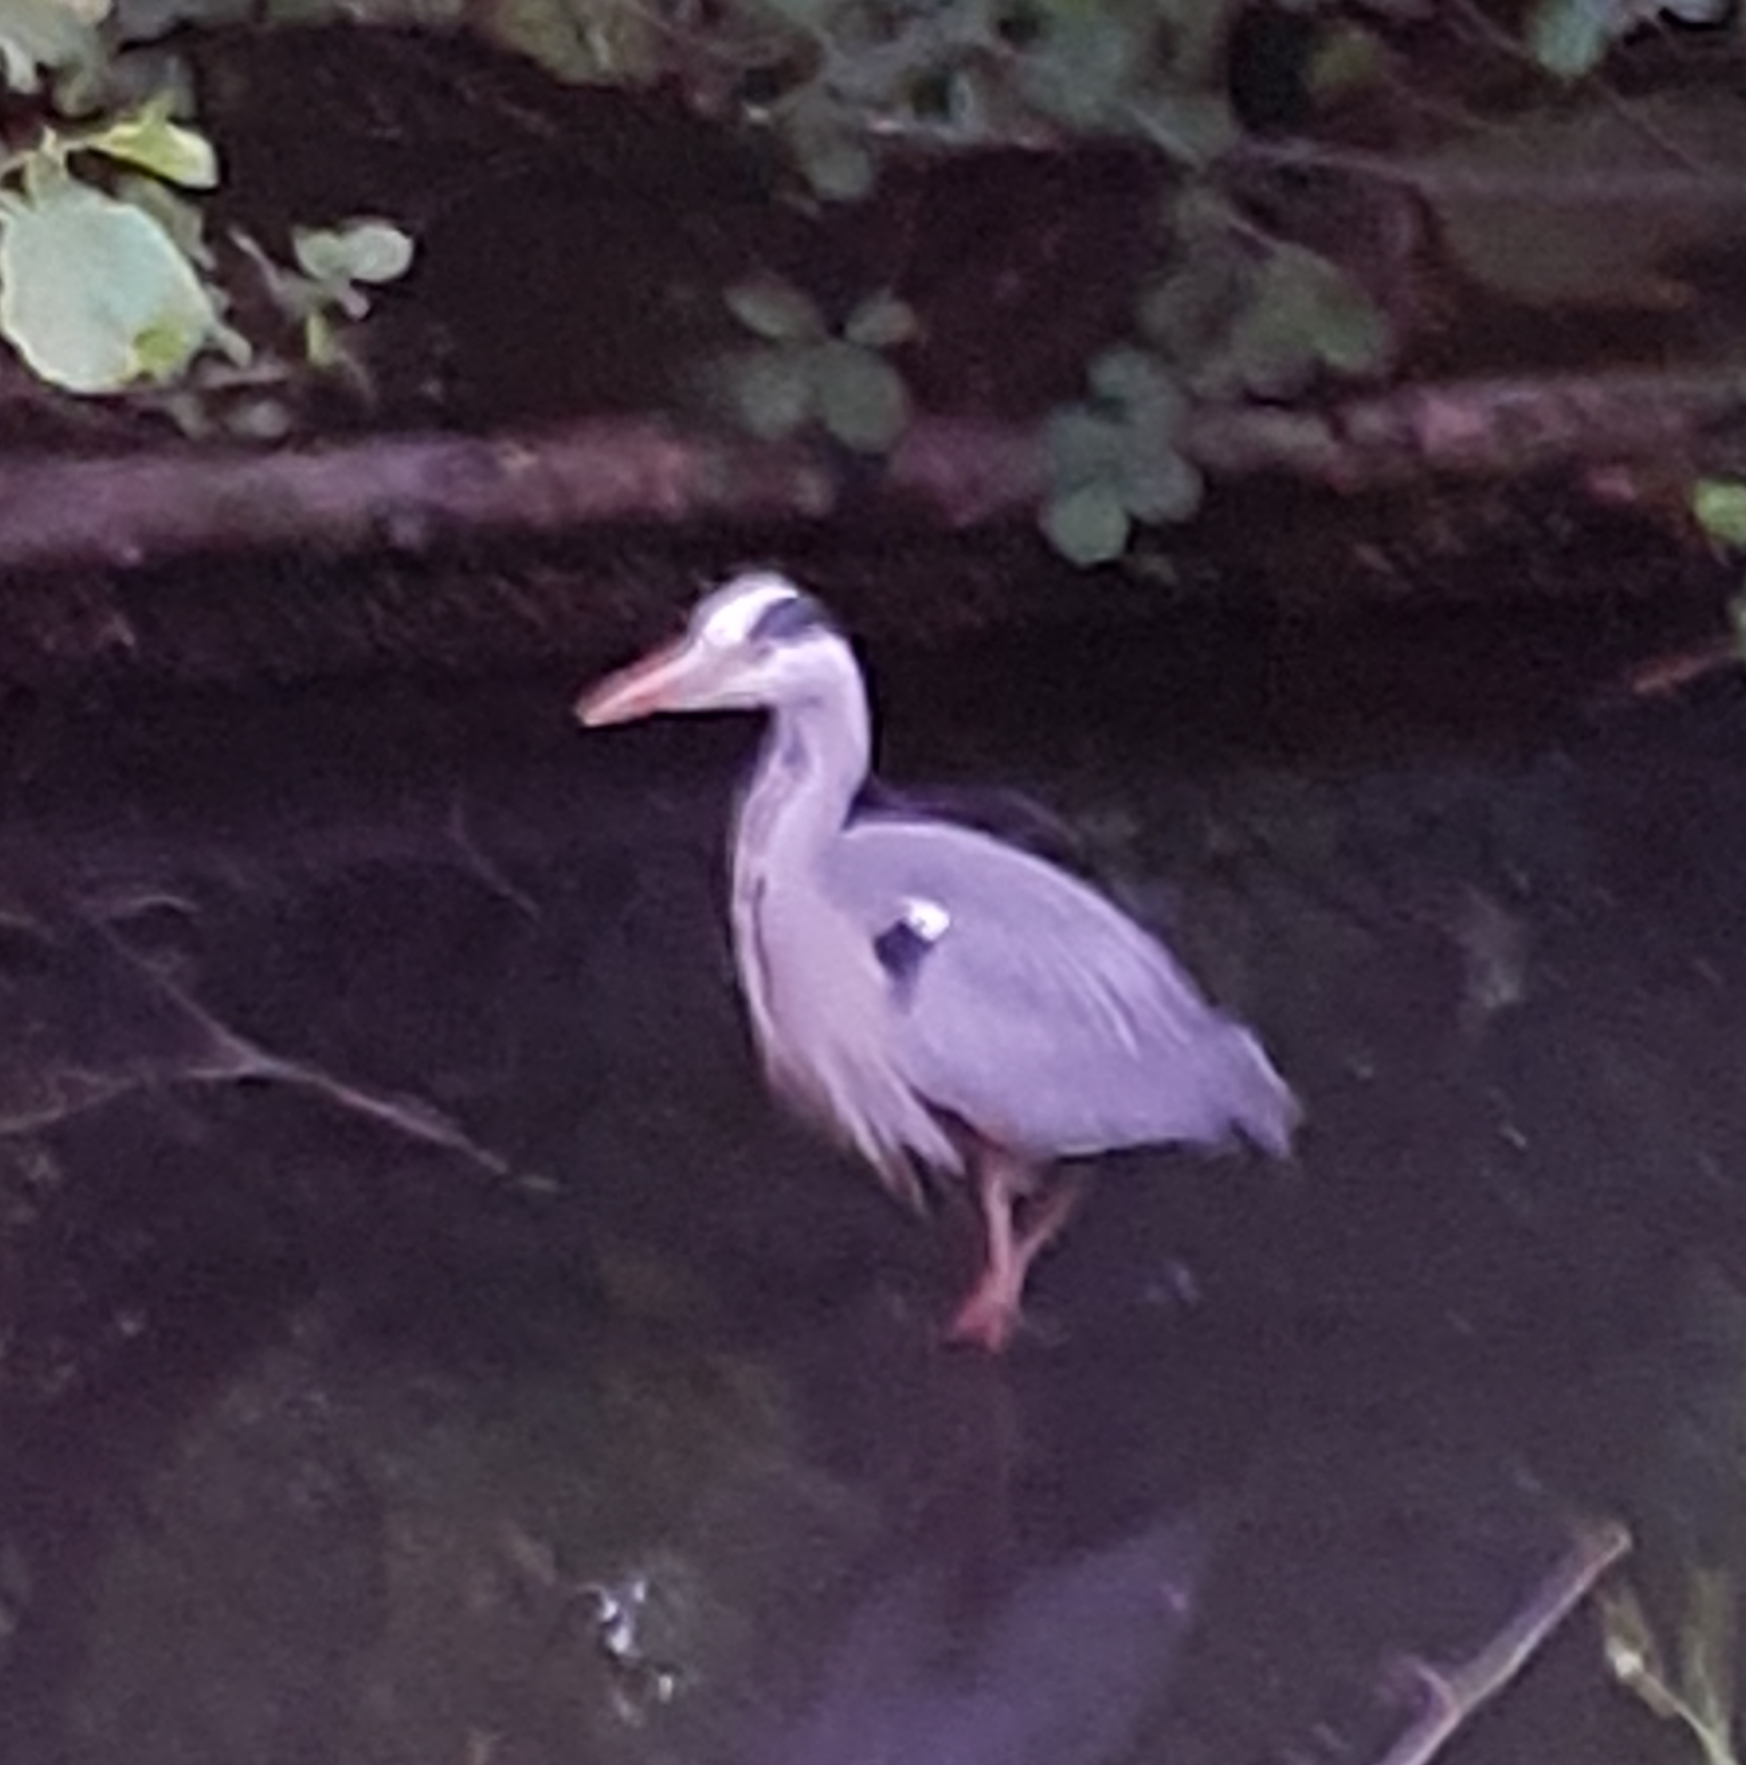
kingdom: Animalia
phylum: Chordata
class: Aves
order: Pelecaniformes
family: Ardeidae
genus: Ardea
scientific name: Ardea cinerea
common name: Grey heron
